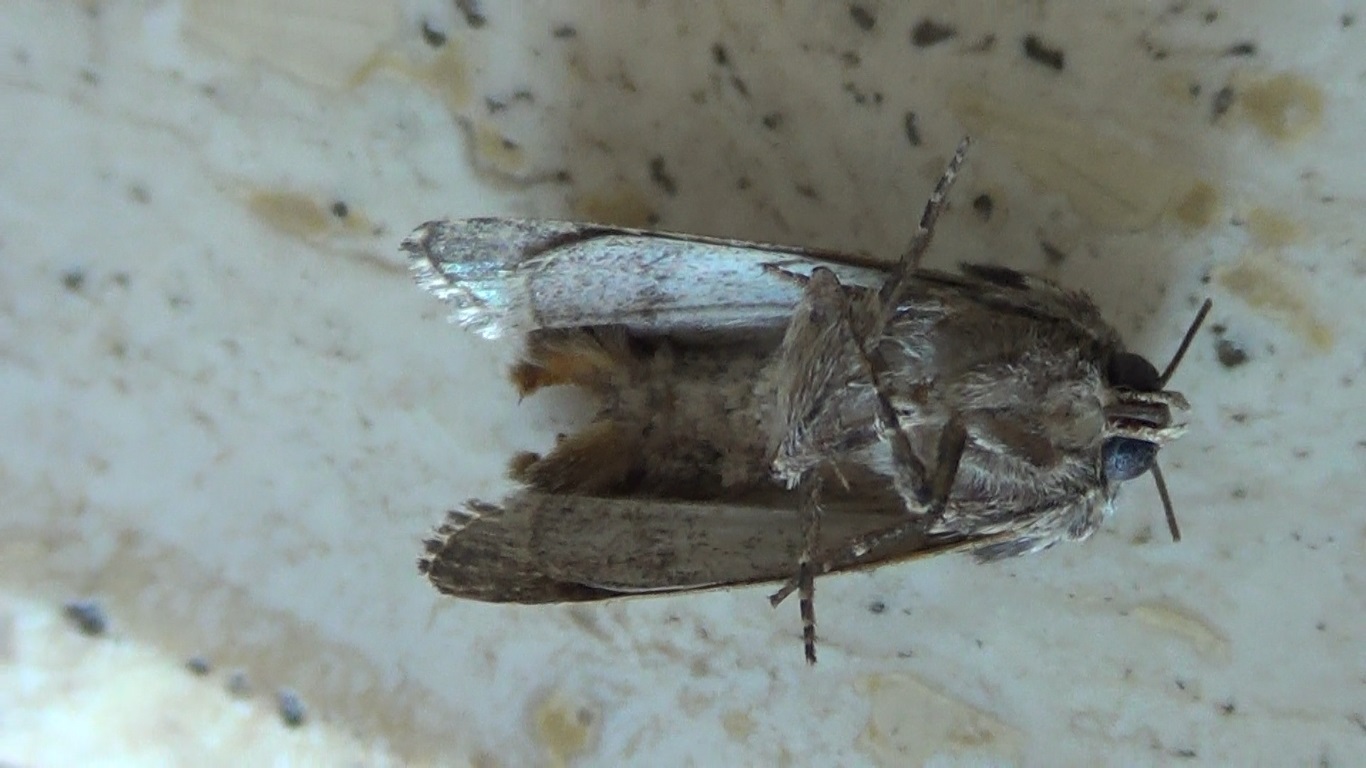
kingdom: Animalia
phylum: Arthropoda
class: Insecta
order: Lepidoptera
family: Noctuidae
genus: Chloantha
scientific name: Chloantha hyperici
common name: Pale-shouldered cloud
